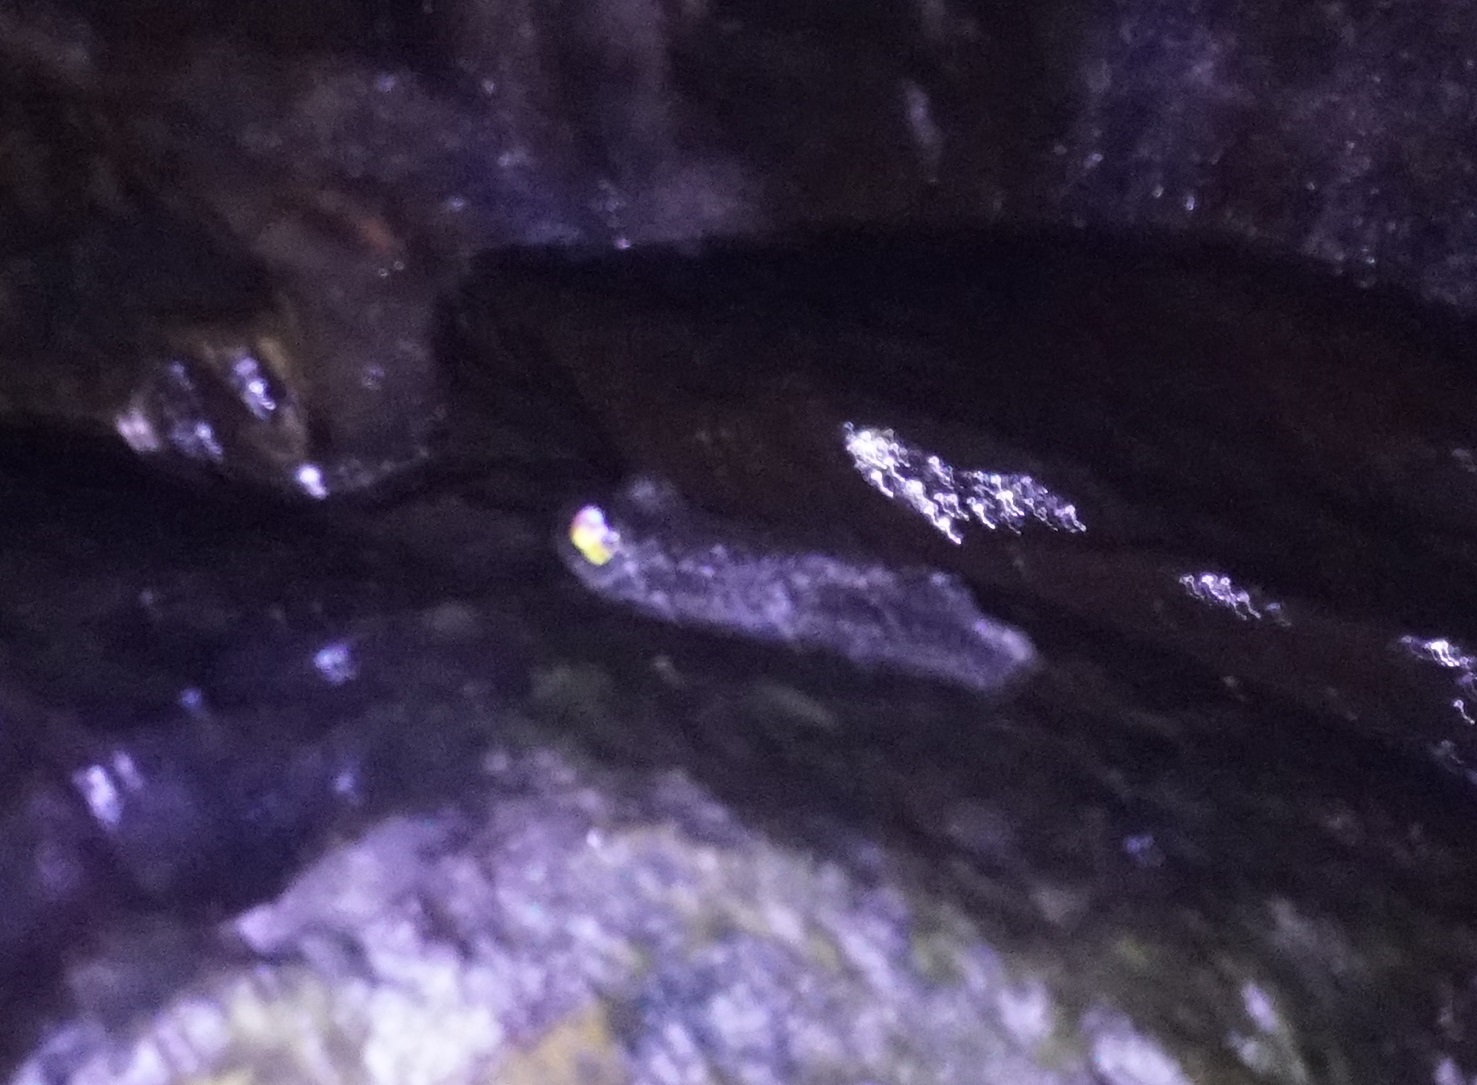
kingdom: Animalia
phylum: Chordata
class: Amphibia
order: Anura
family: Pelodryadidae
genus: Ranoidea
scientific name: Ranoidea nannotis
